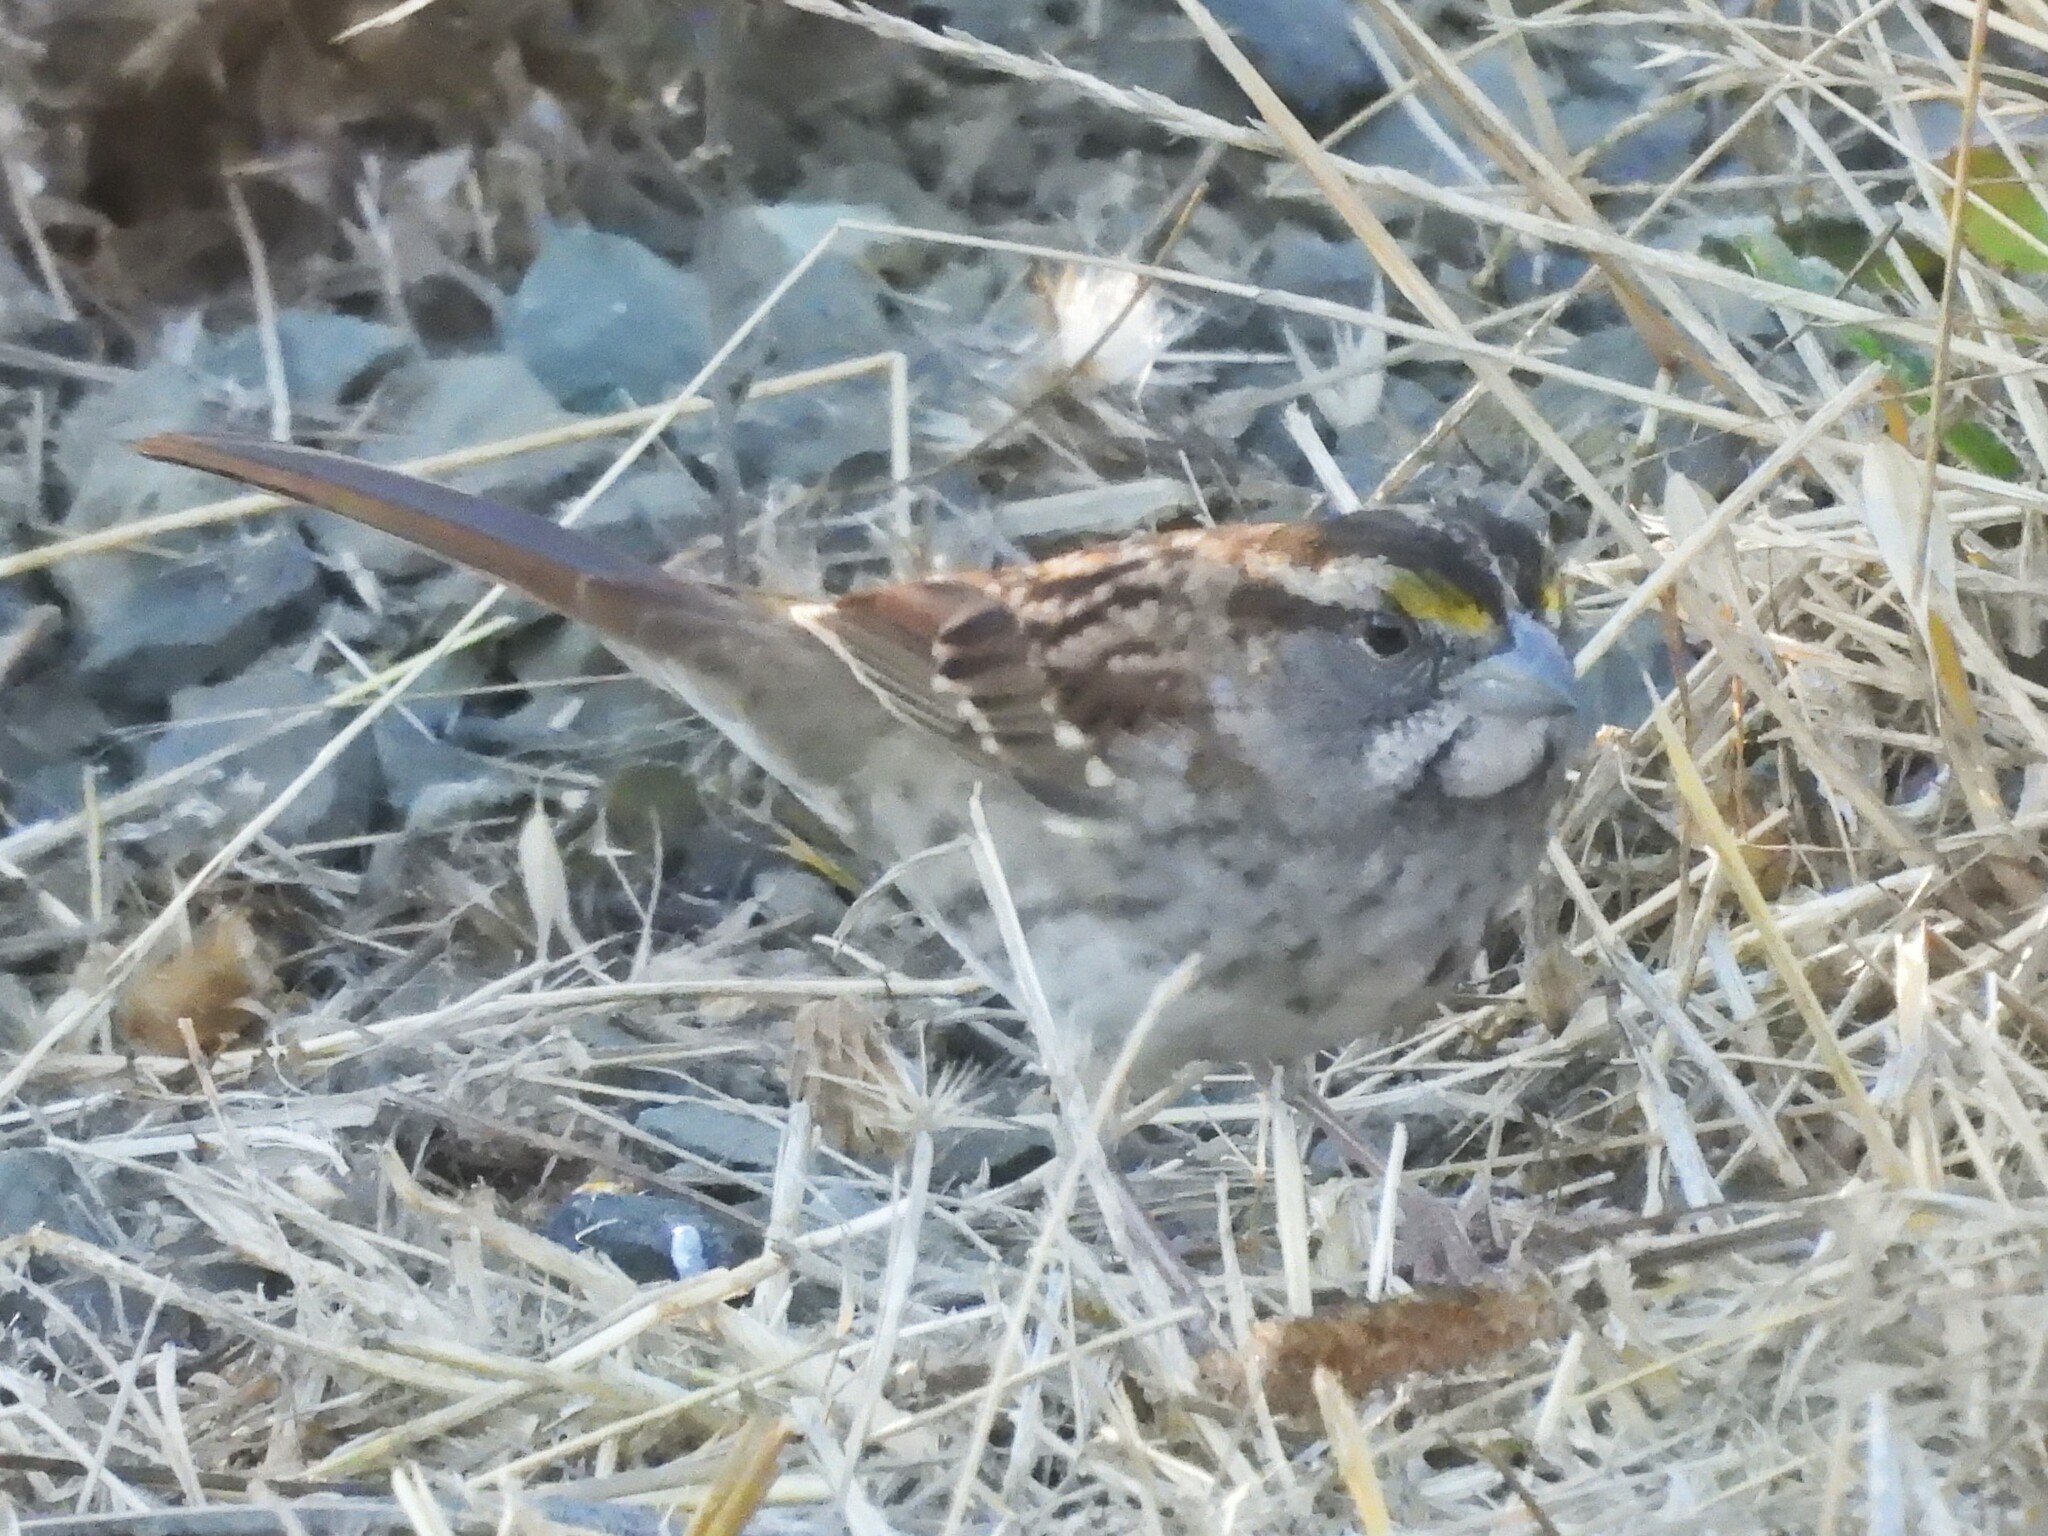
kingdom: Animalia
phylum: Chordata
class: Aves
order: Passeriformes
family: Passerellidae
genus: Zonotrichia
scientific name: Zonotrichia albicollis
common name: White-throated sparrow
